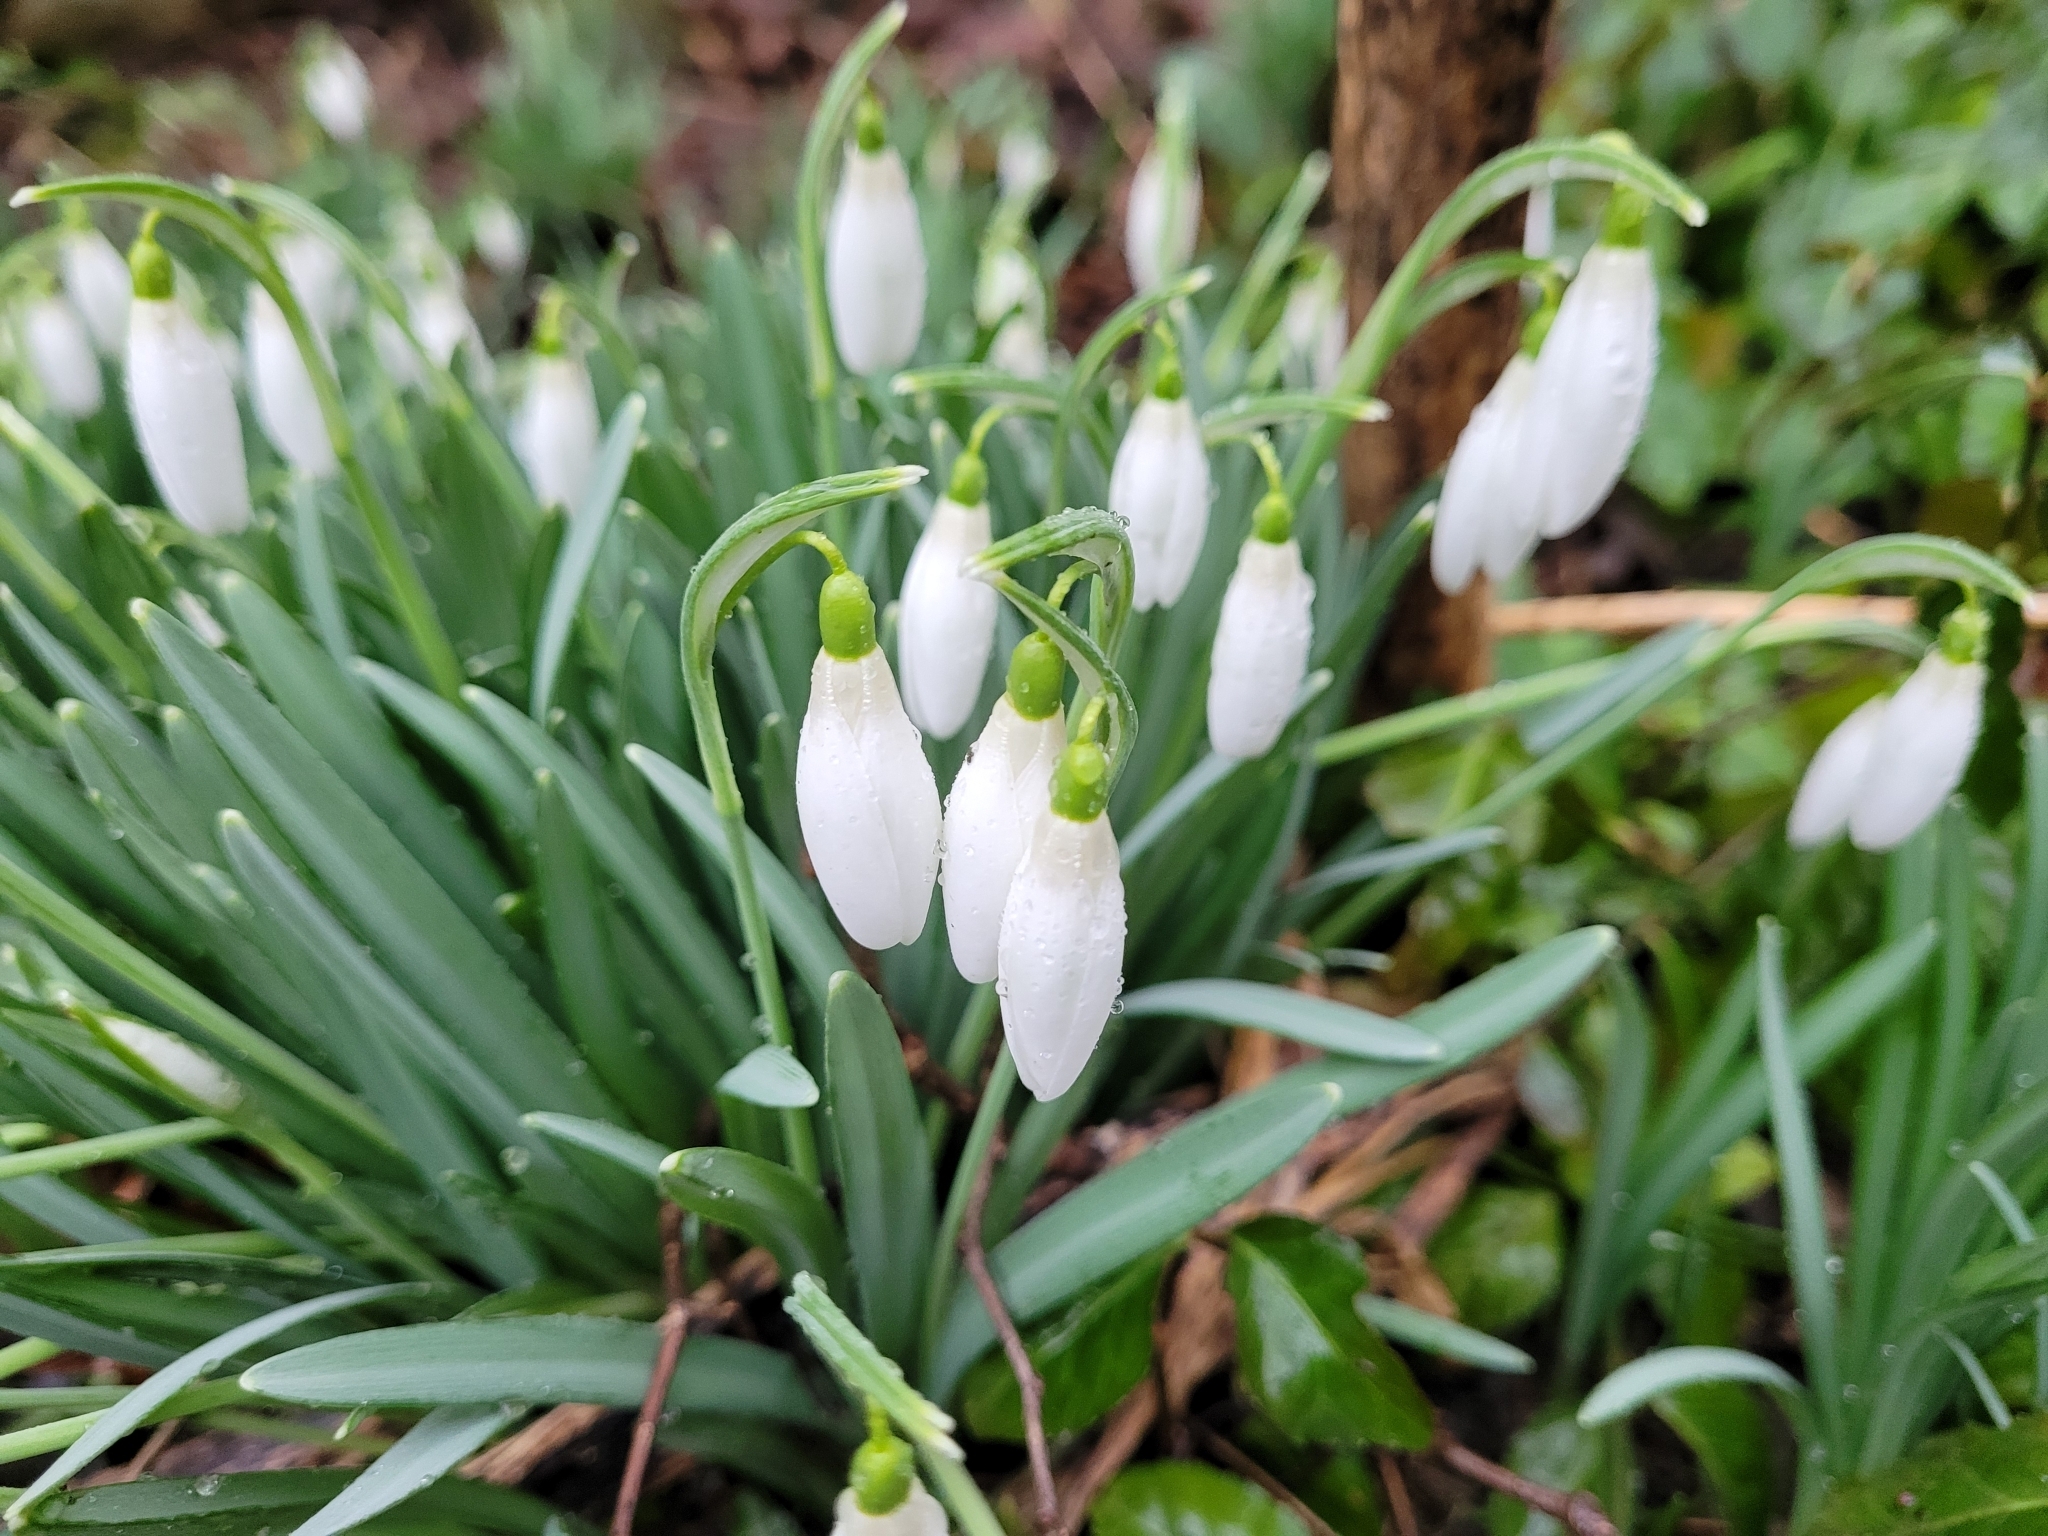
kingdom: Plantae
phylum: Tracheophyta
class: Liliopsida
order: Asparagales
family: Amaryllidaceae
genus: Galanthus
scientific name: Galanthus nivalis
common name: Snowdrop
